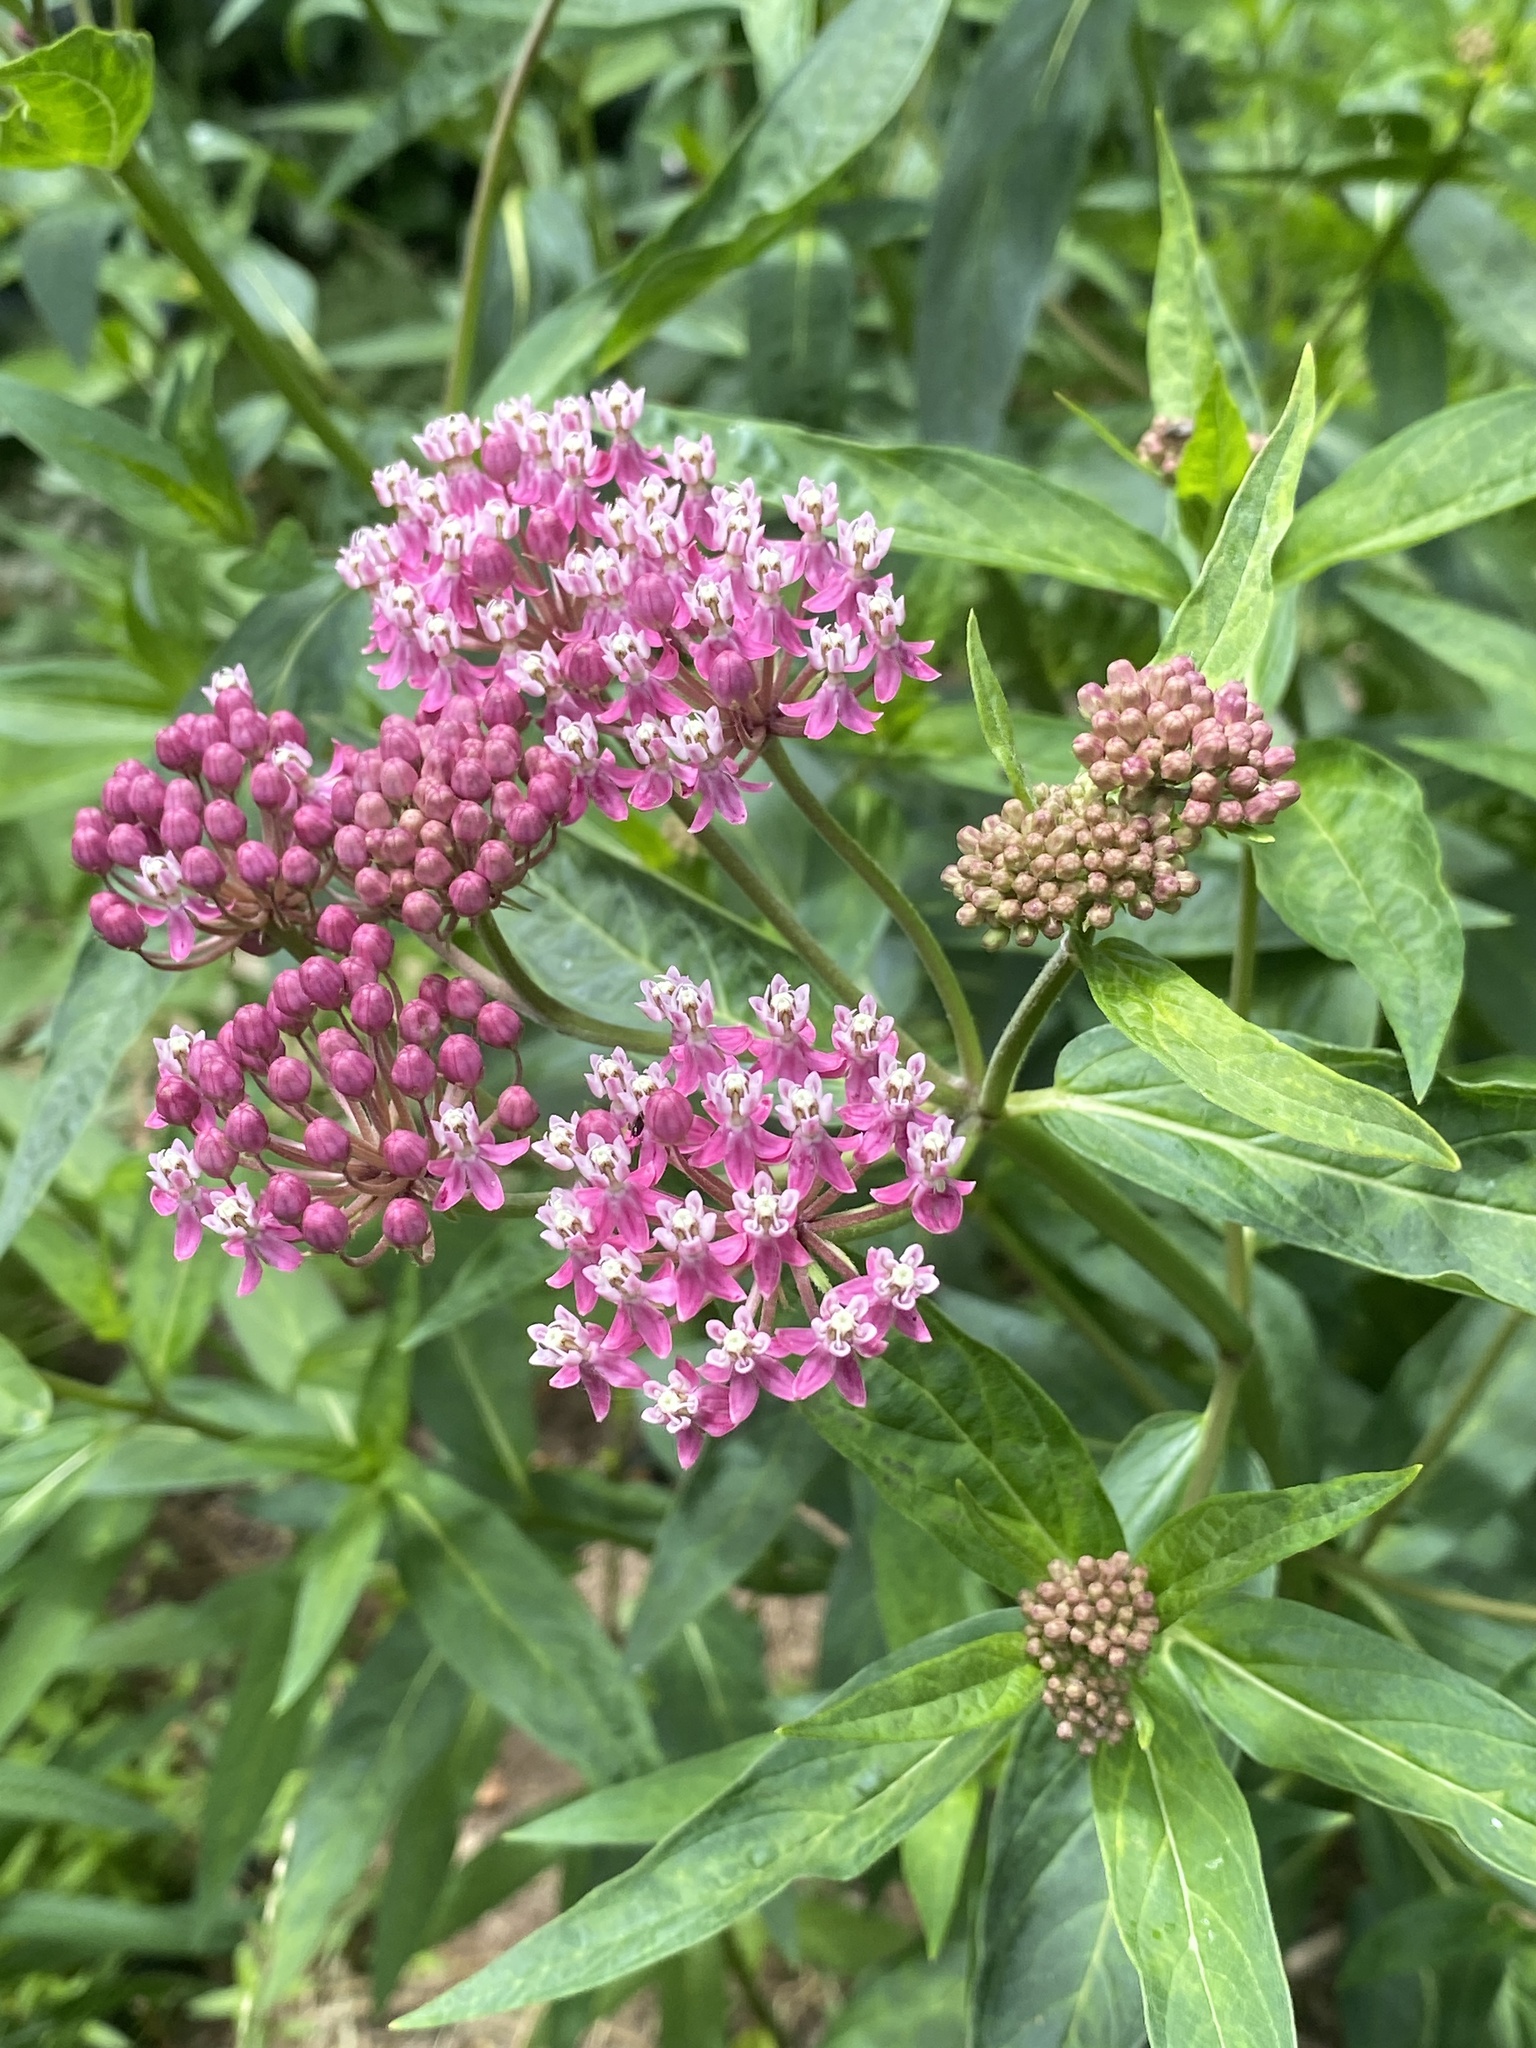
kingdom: Plantae
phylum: Tracheophyta
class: Magnoliopsida
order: Gentianales
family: Apocynaceae
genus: Asclepias
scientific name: Asclepias incarnata
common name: Swamp milkweed
